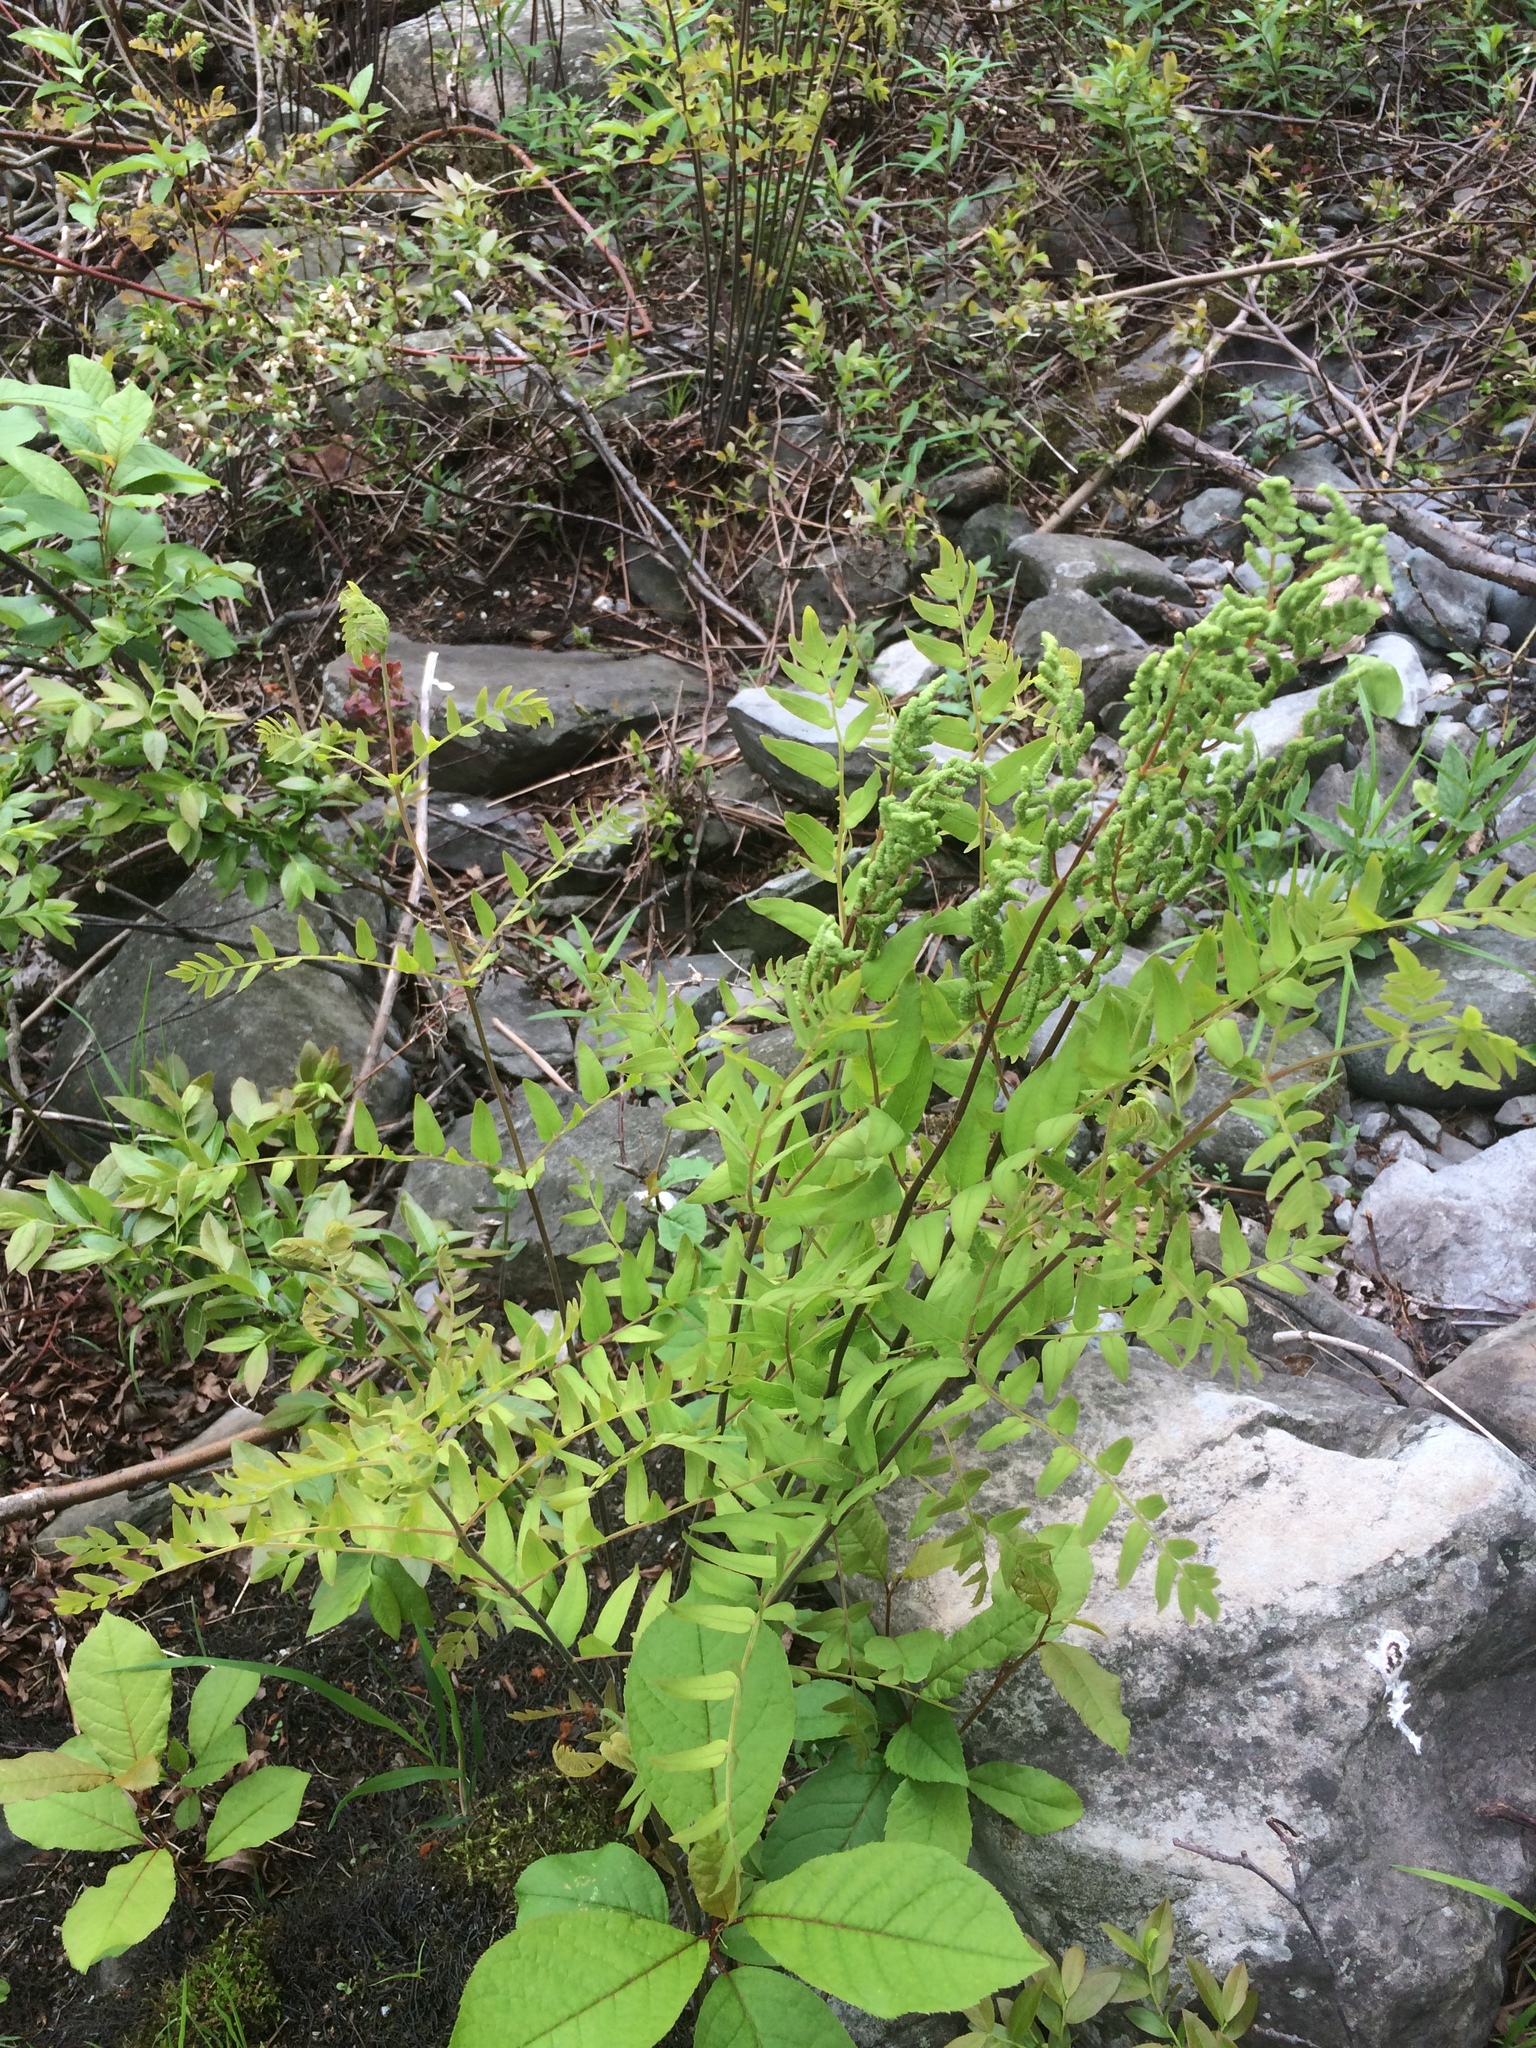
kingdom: Plantae
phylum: Tracheophyta
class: Polypodiopsida
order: Osmundales
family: Osmundaceae
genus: Osmunda
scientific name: Osmunda spectabilis
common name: American royal fern
